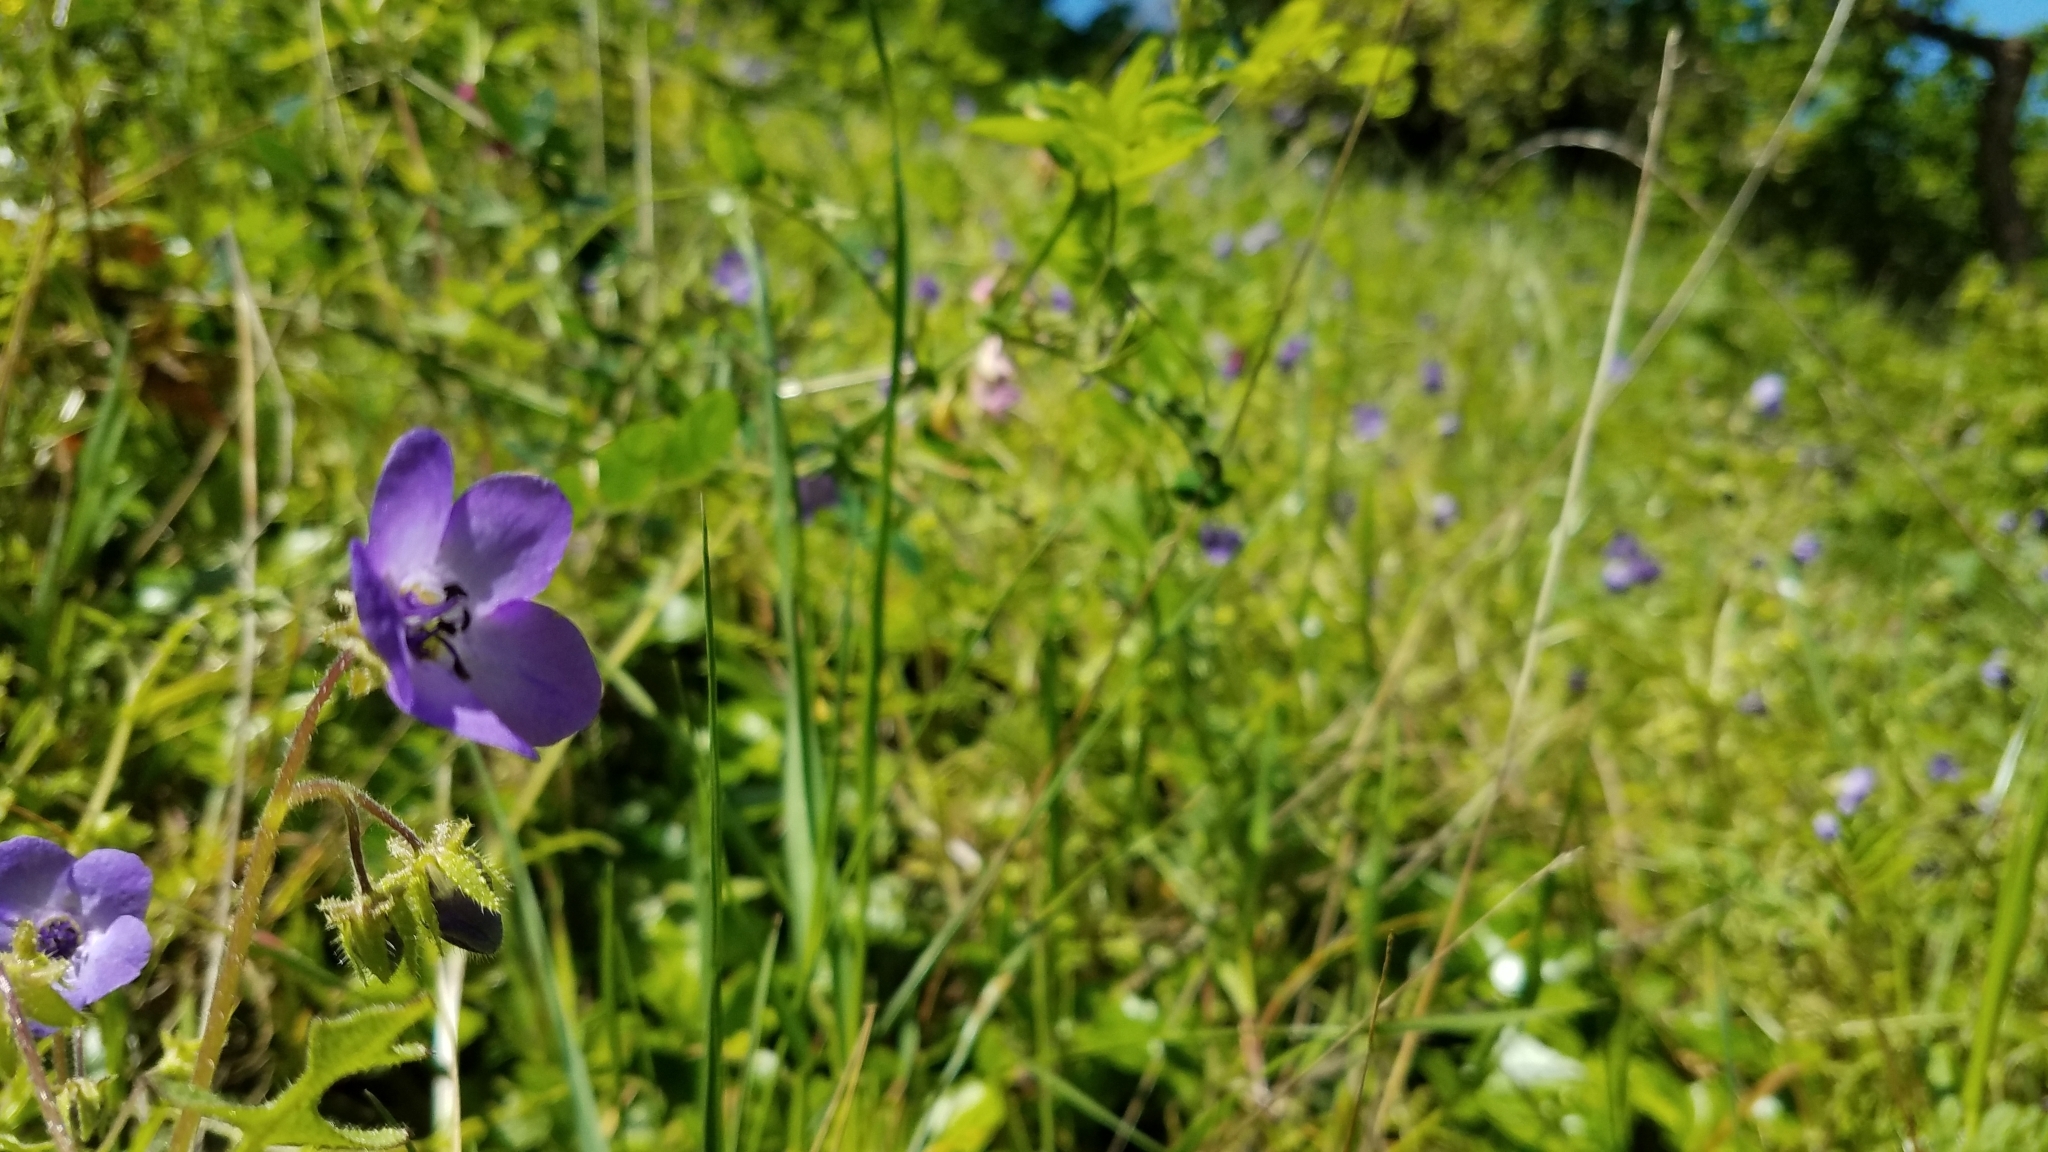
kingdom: Plantae
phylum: Tracheophyta
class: Magnoliopsida
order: Boraginales
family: Hydrophyllaceae
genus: Pholistoma
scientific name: Pholistoma auritum
